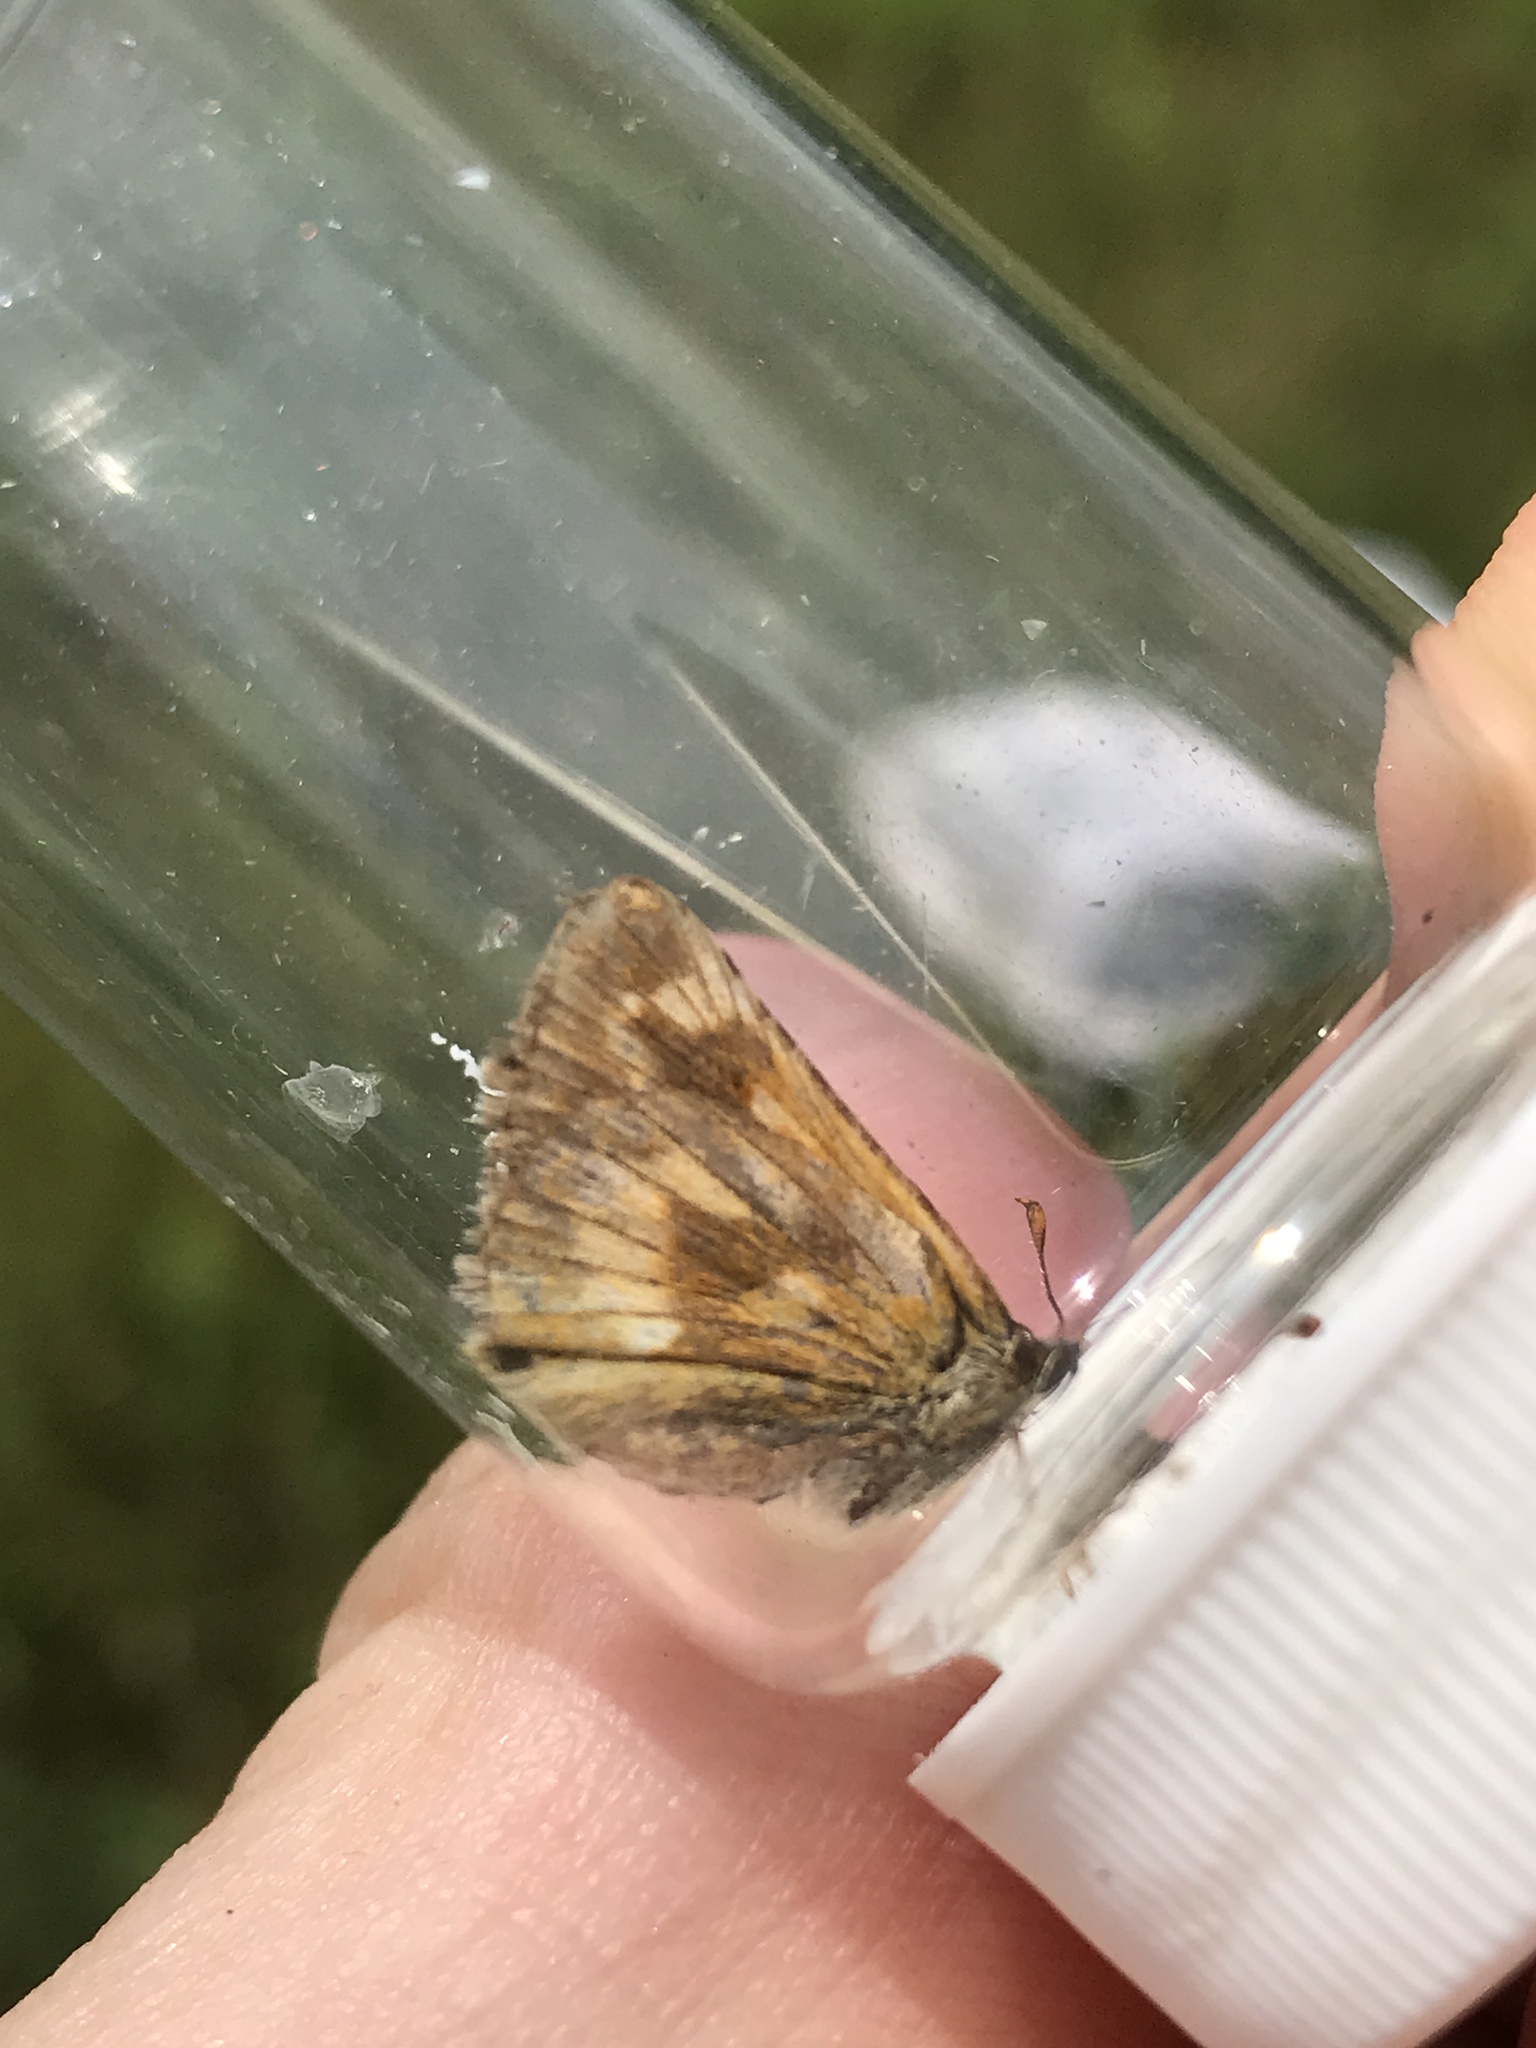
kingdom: Animalia
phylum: Arthropoda
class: Insecta
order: Lepidoptera
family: Hesperiidae
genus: Polites
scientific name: Polites mystic
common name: Long dash
